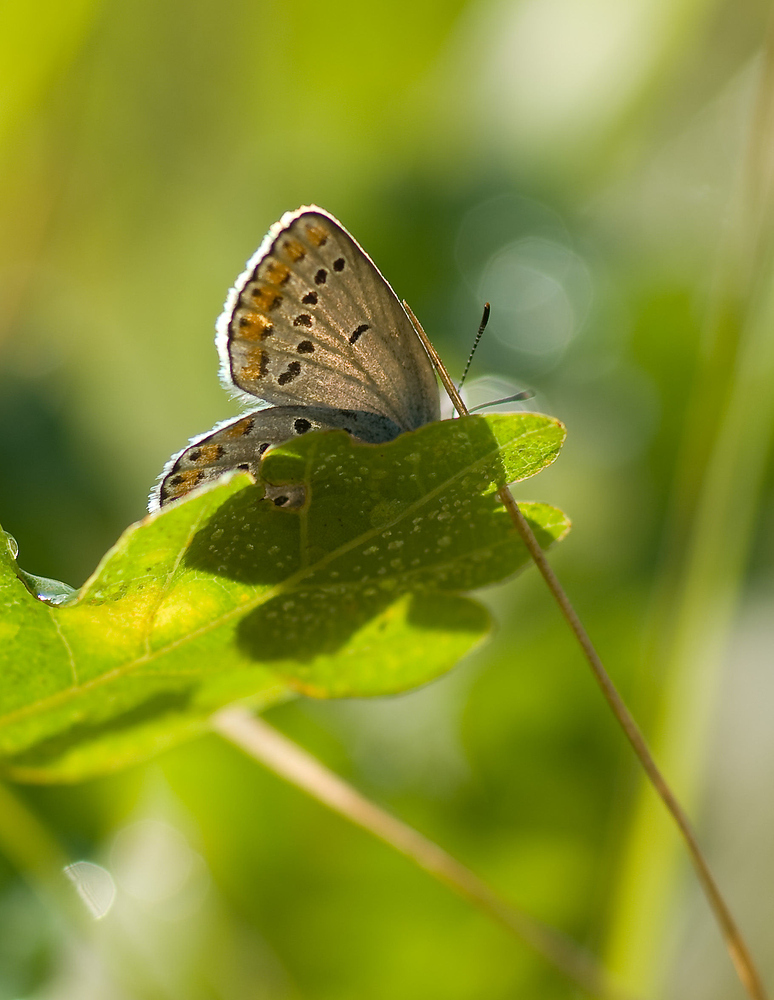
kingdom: Animalia
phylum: Arthropoda
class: Insecta
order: Lepidoptera
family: Lycaenidae
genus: Plebejus
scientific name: Plebejus argyrognomon
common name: Reverdin's blue
